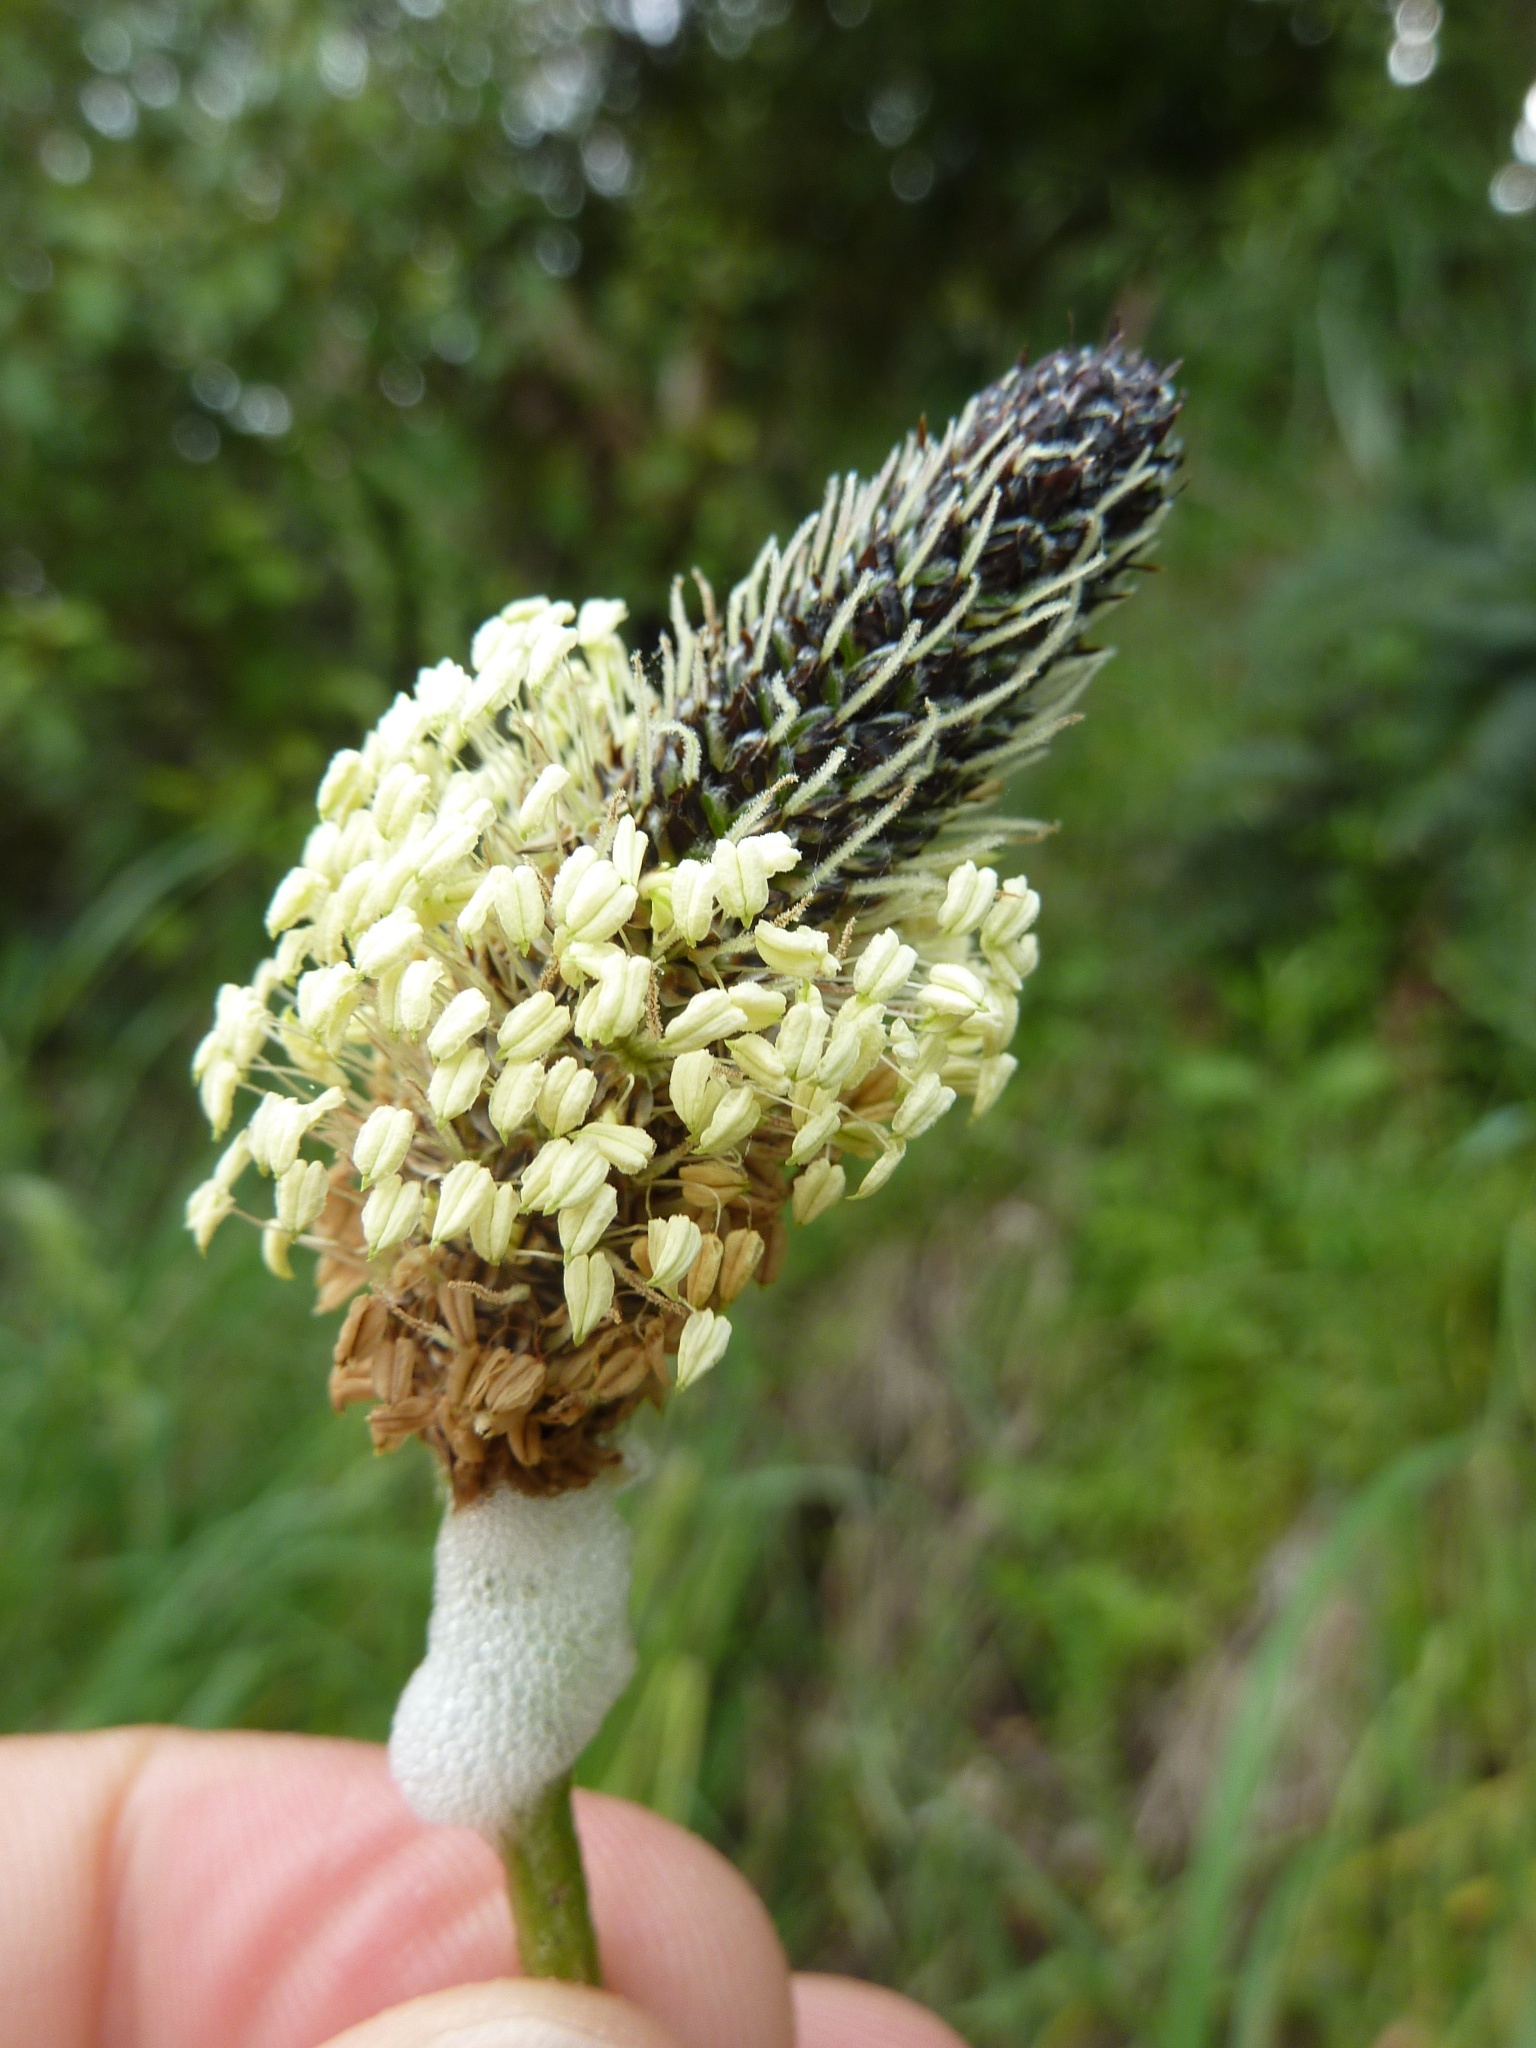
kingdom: Plantae
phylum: Tracheophyta
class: Magnoliopsida
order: Lamiales
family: Plantaginaceae
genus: Plantago
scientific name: Plantago lanceolata
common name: Ribwort plantain
